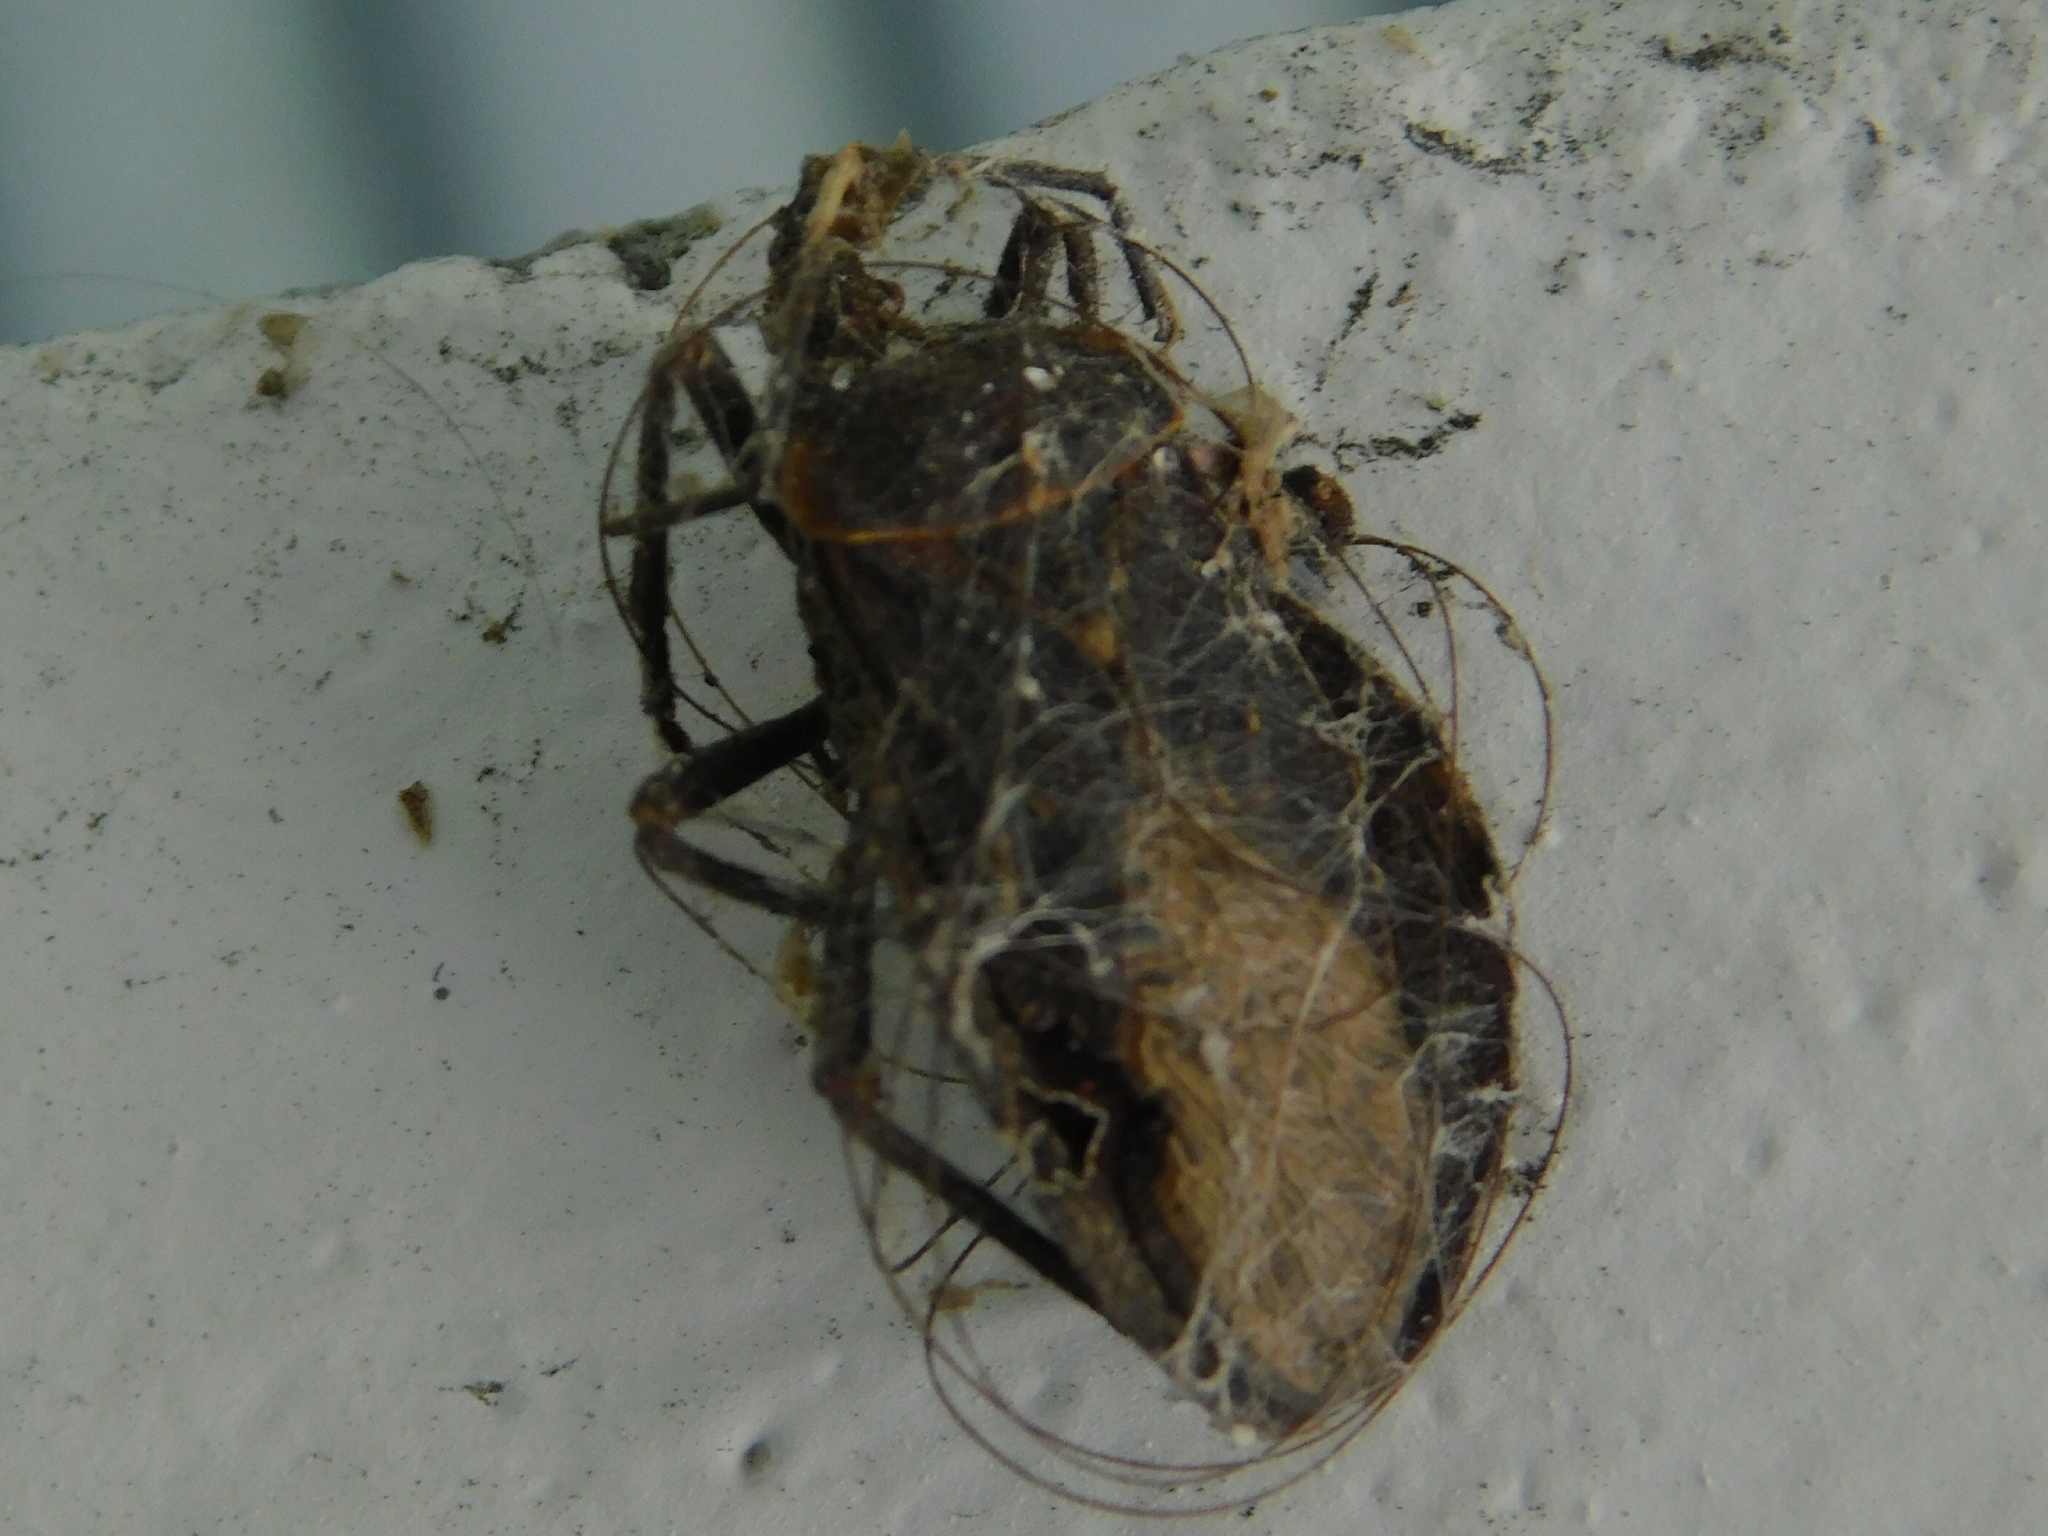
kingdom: Animalia
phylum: Arthropoda
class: Insecta
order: Hemiptera
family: Coreidae
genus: Spartocera
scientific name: Spartocera batatas
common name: Giant sweetpotato bug
